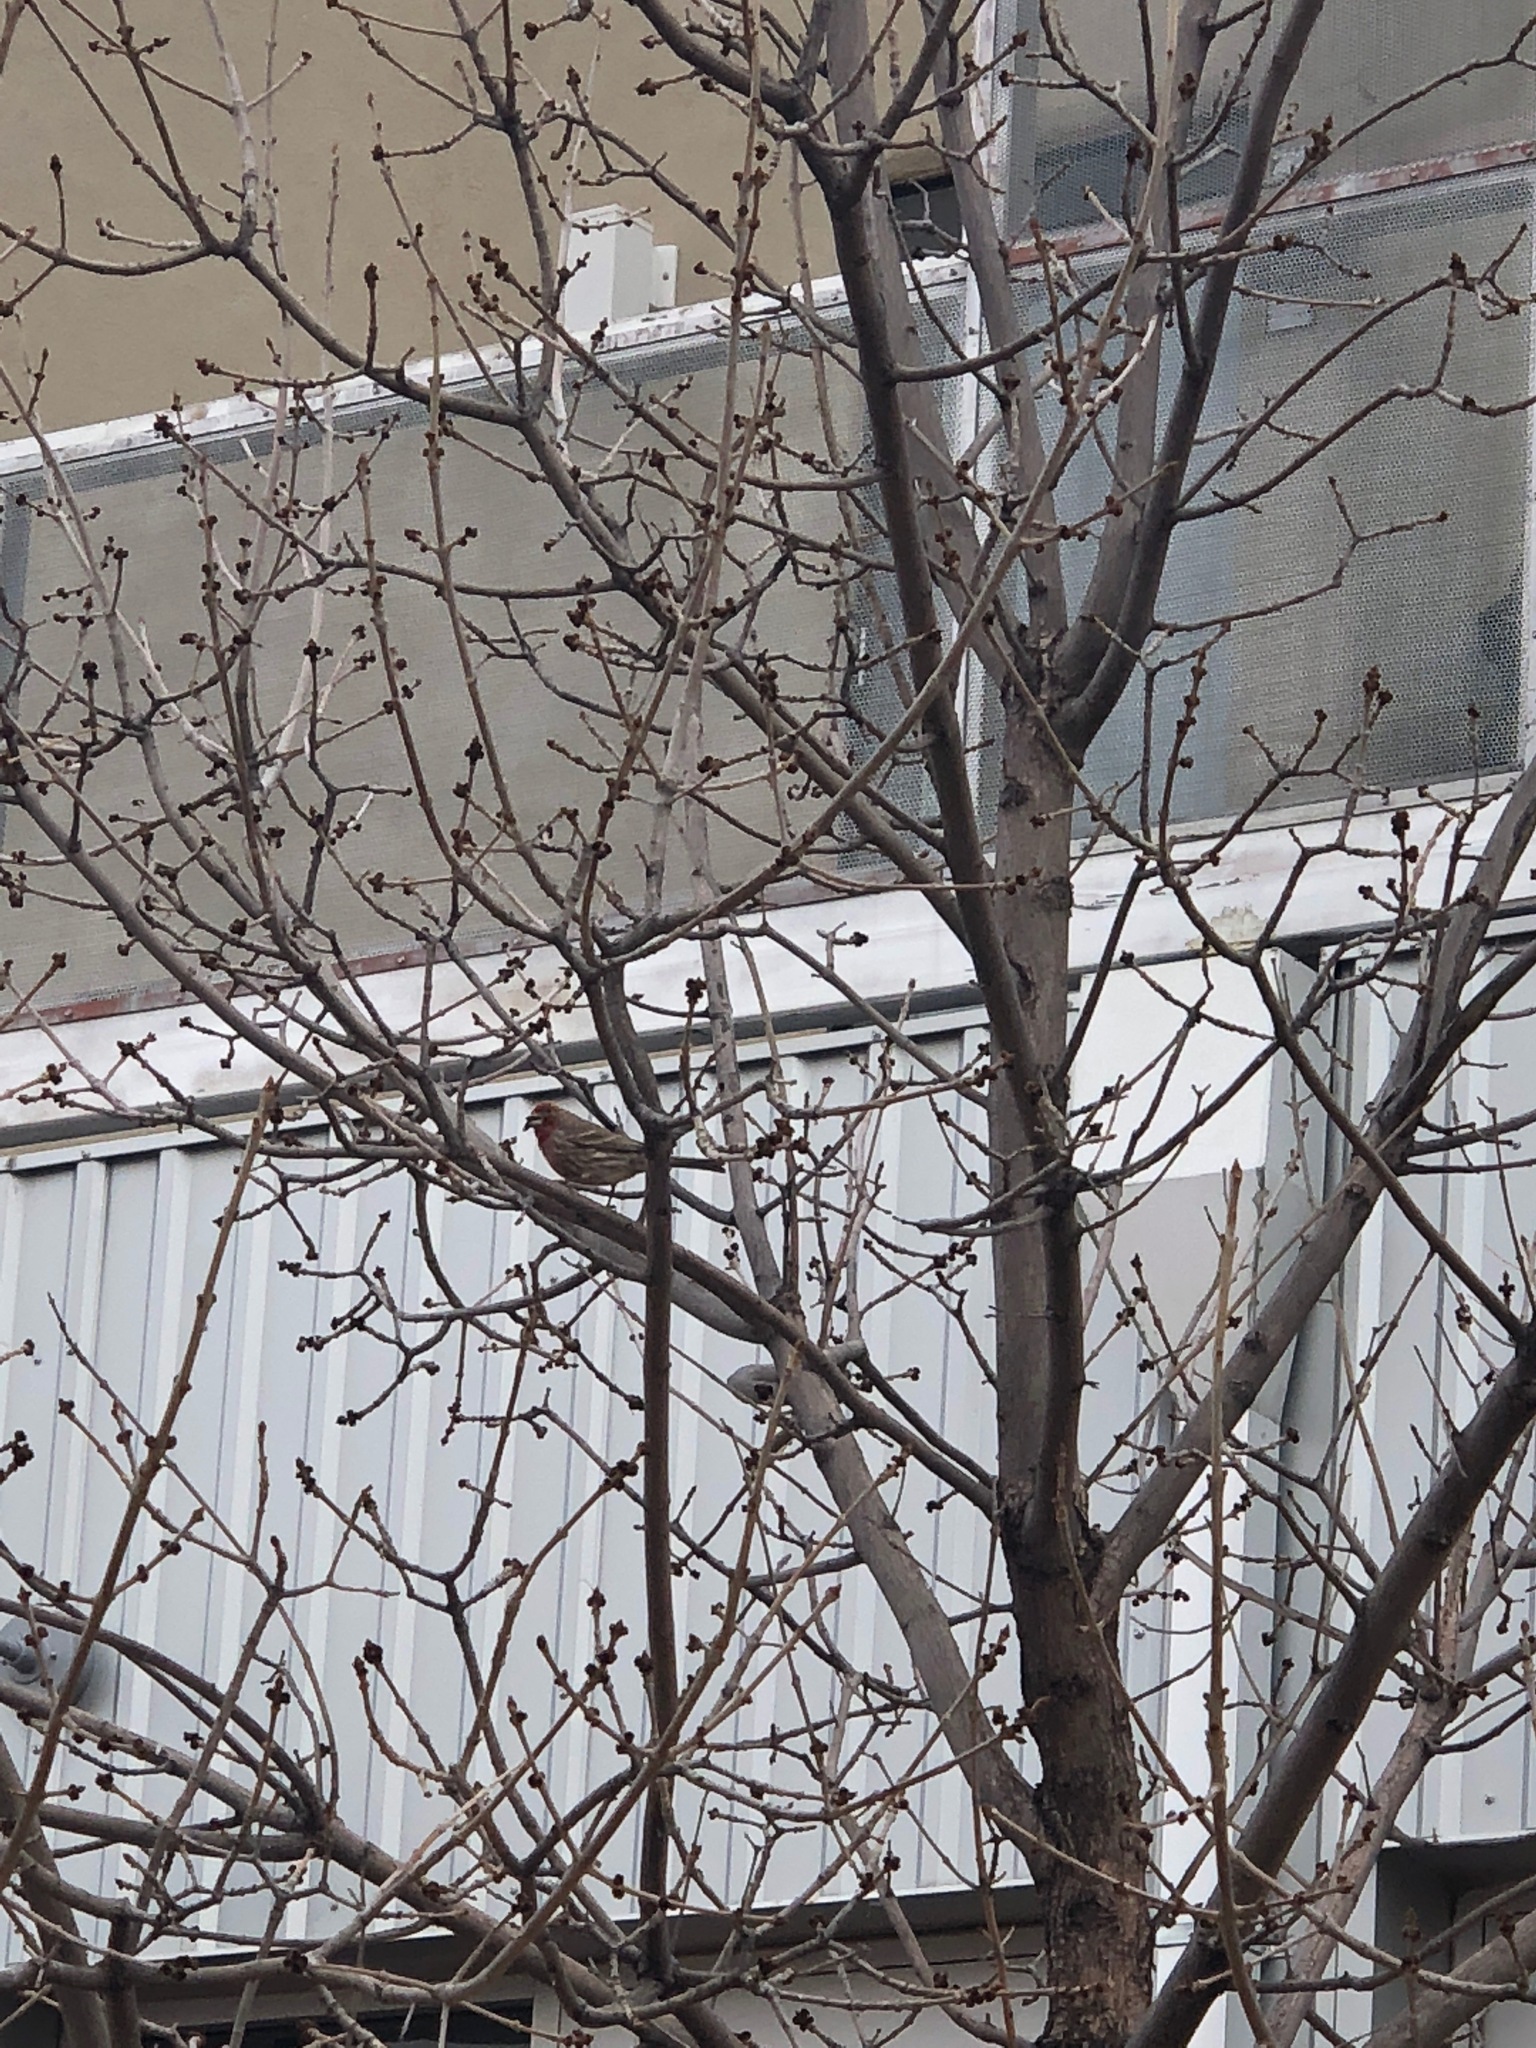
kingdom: Animalia
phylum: Chordata
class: Aves
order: Passeriformes
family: Fringillidae
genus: Haemorhous
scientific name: Haemorhous mexicanus
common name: House finch
